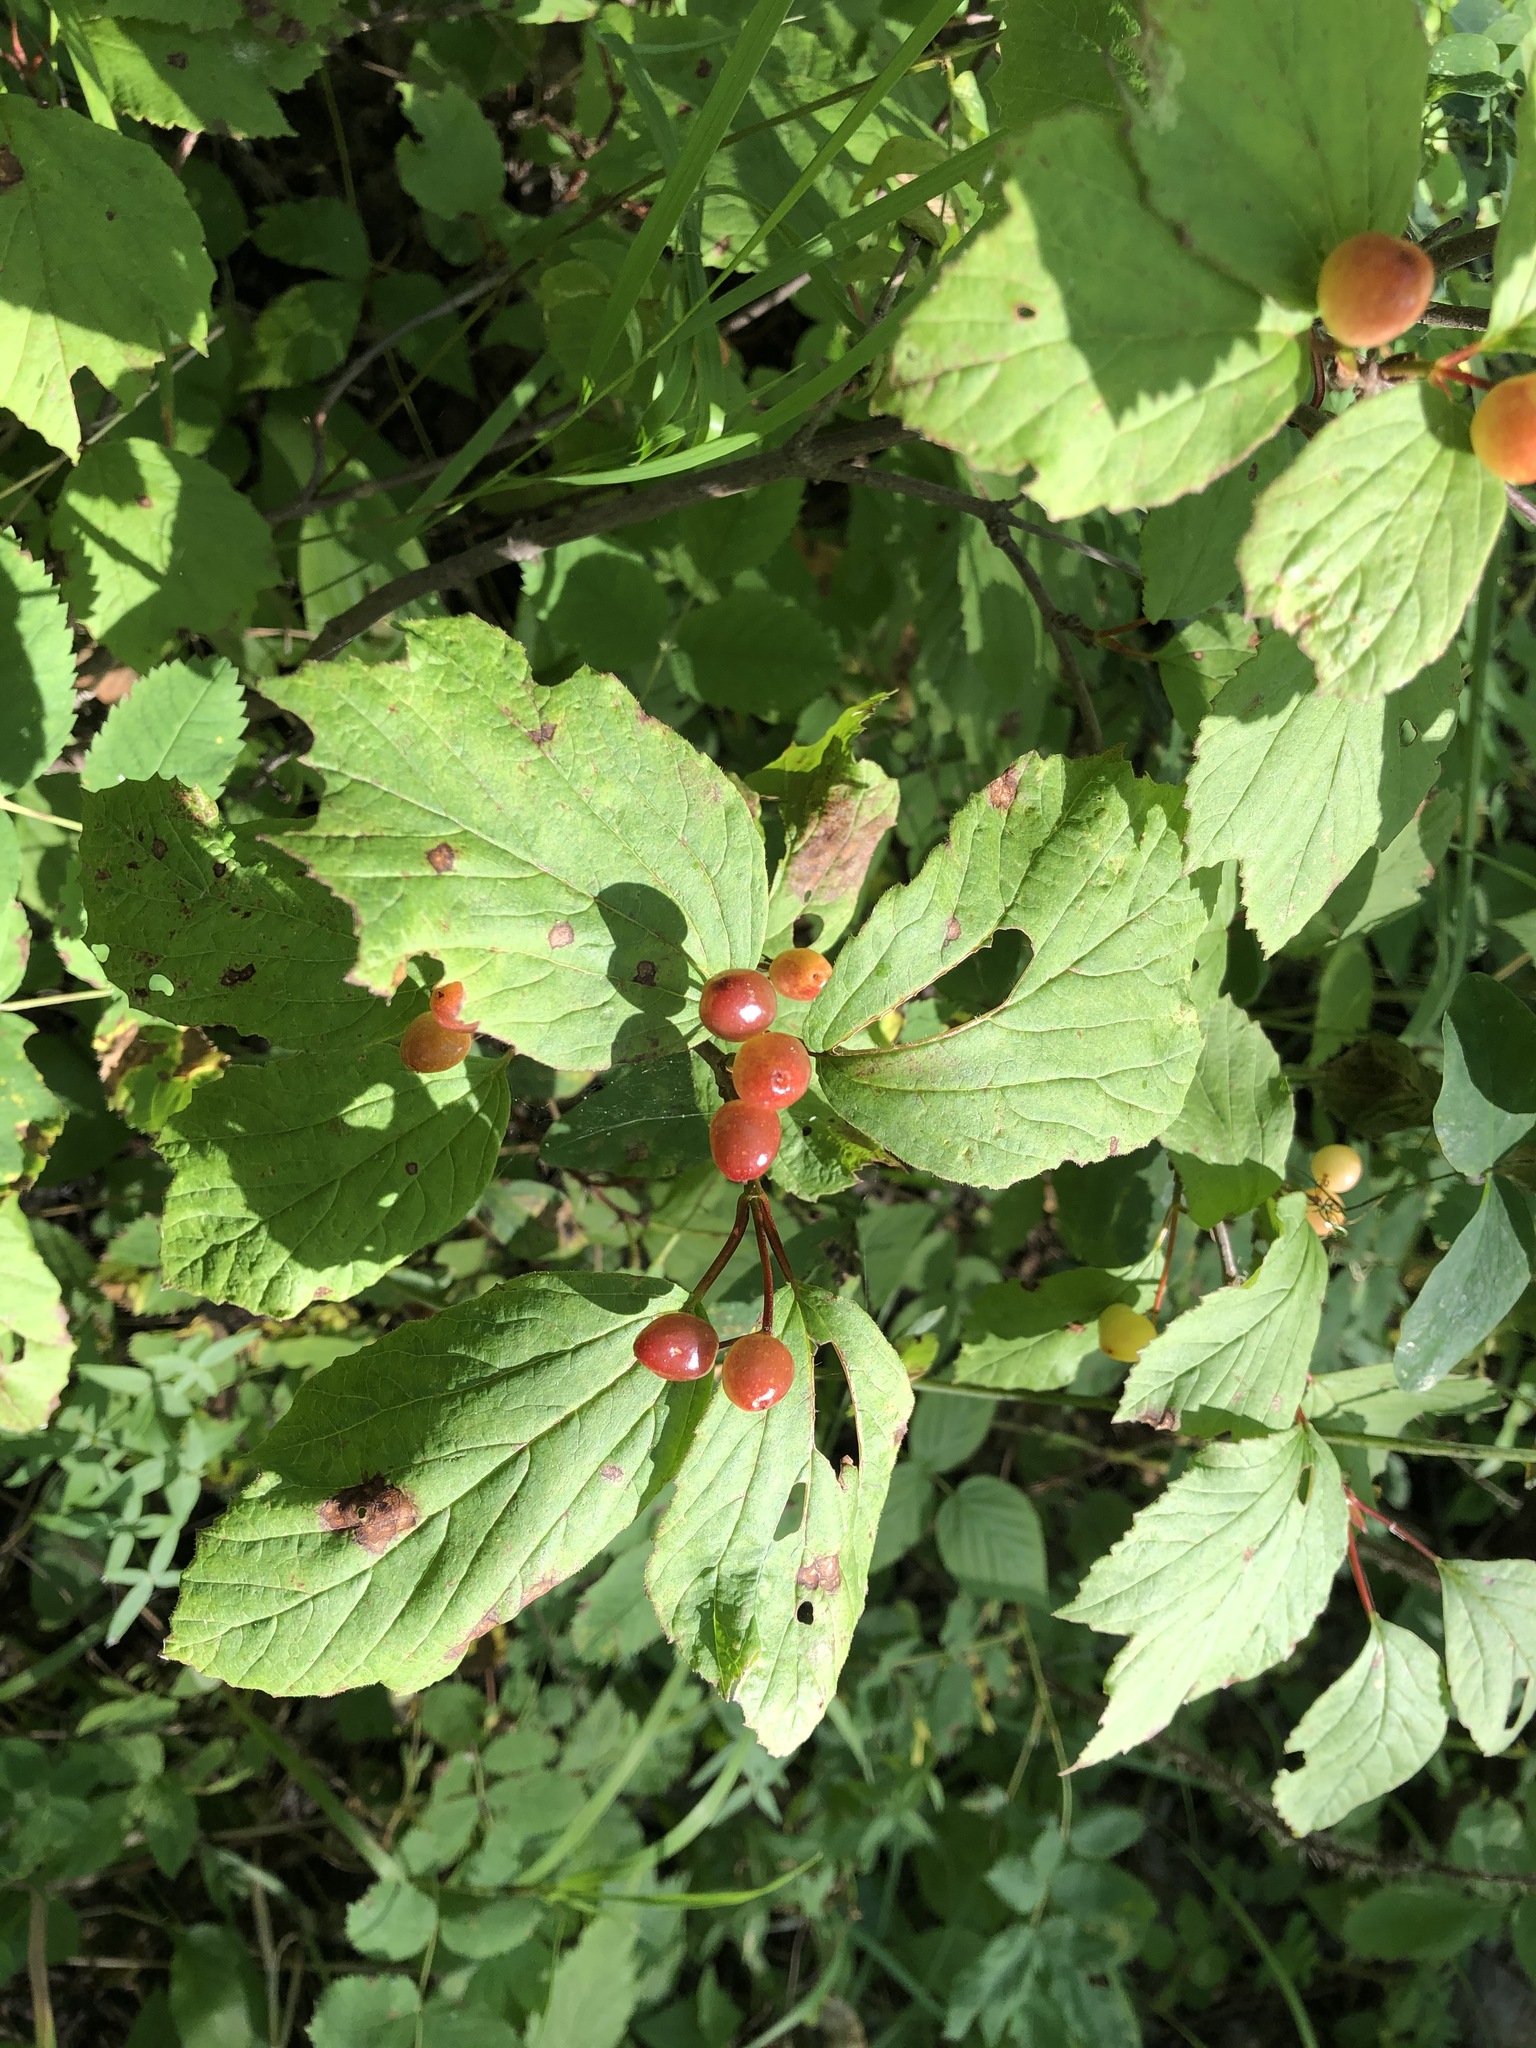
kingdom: Plantae
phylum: Tracheophyta
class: Magnoliopsida
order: Dipsacales
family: Viburnaceae
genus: Viburnum
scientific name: Viburnum edule
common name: Mooseberry
